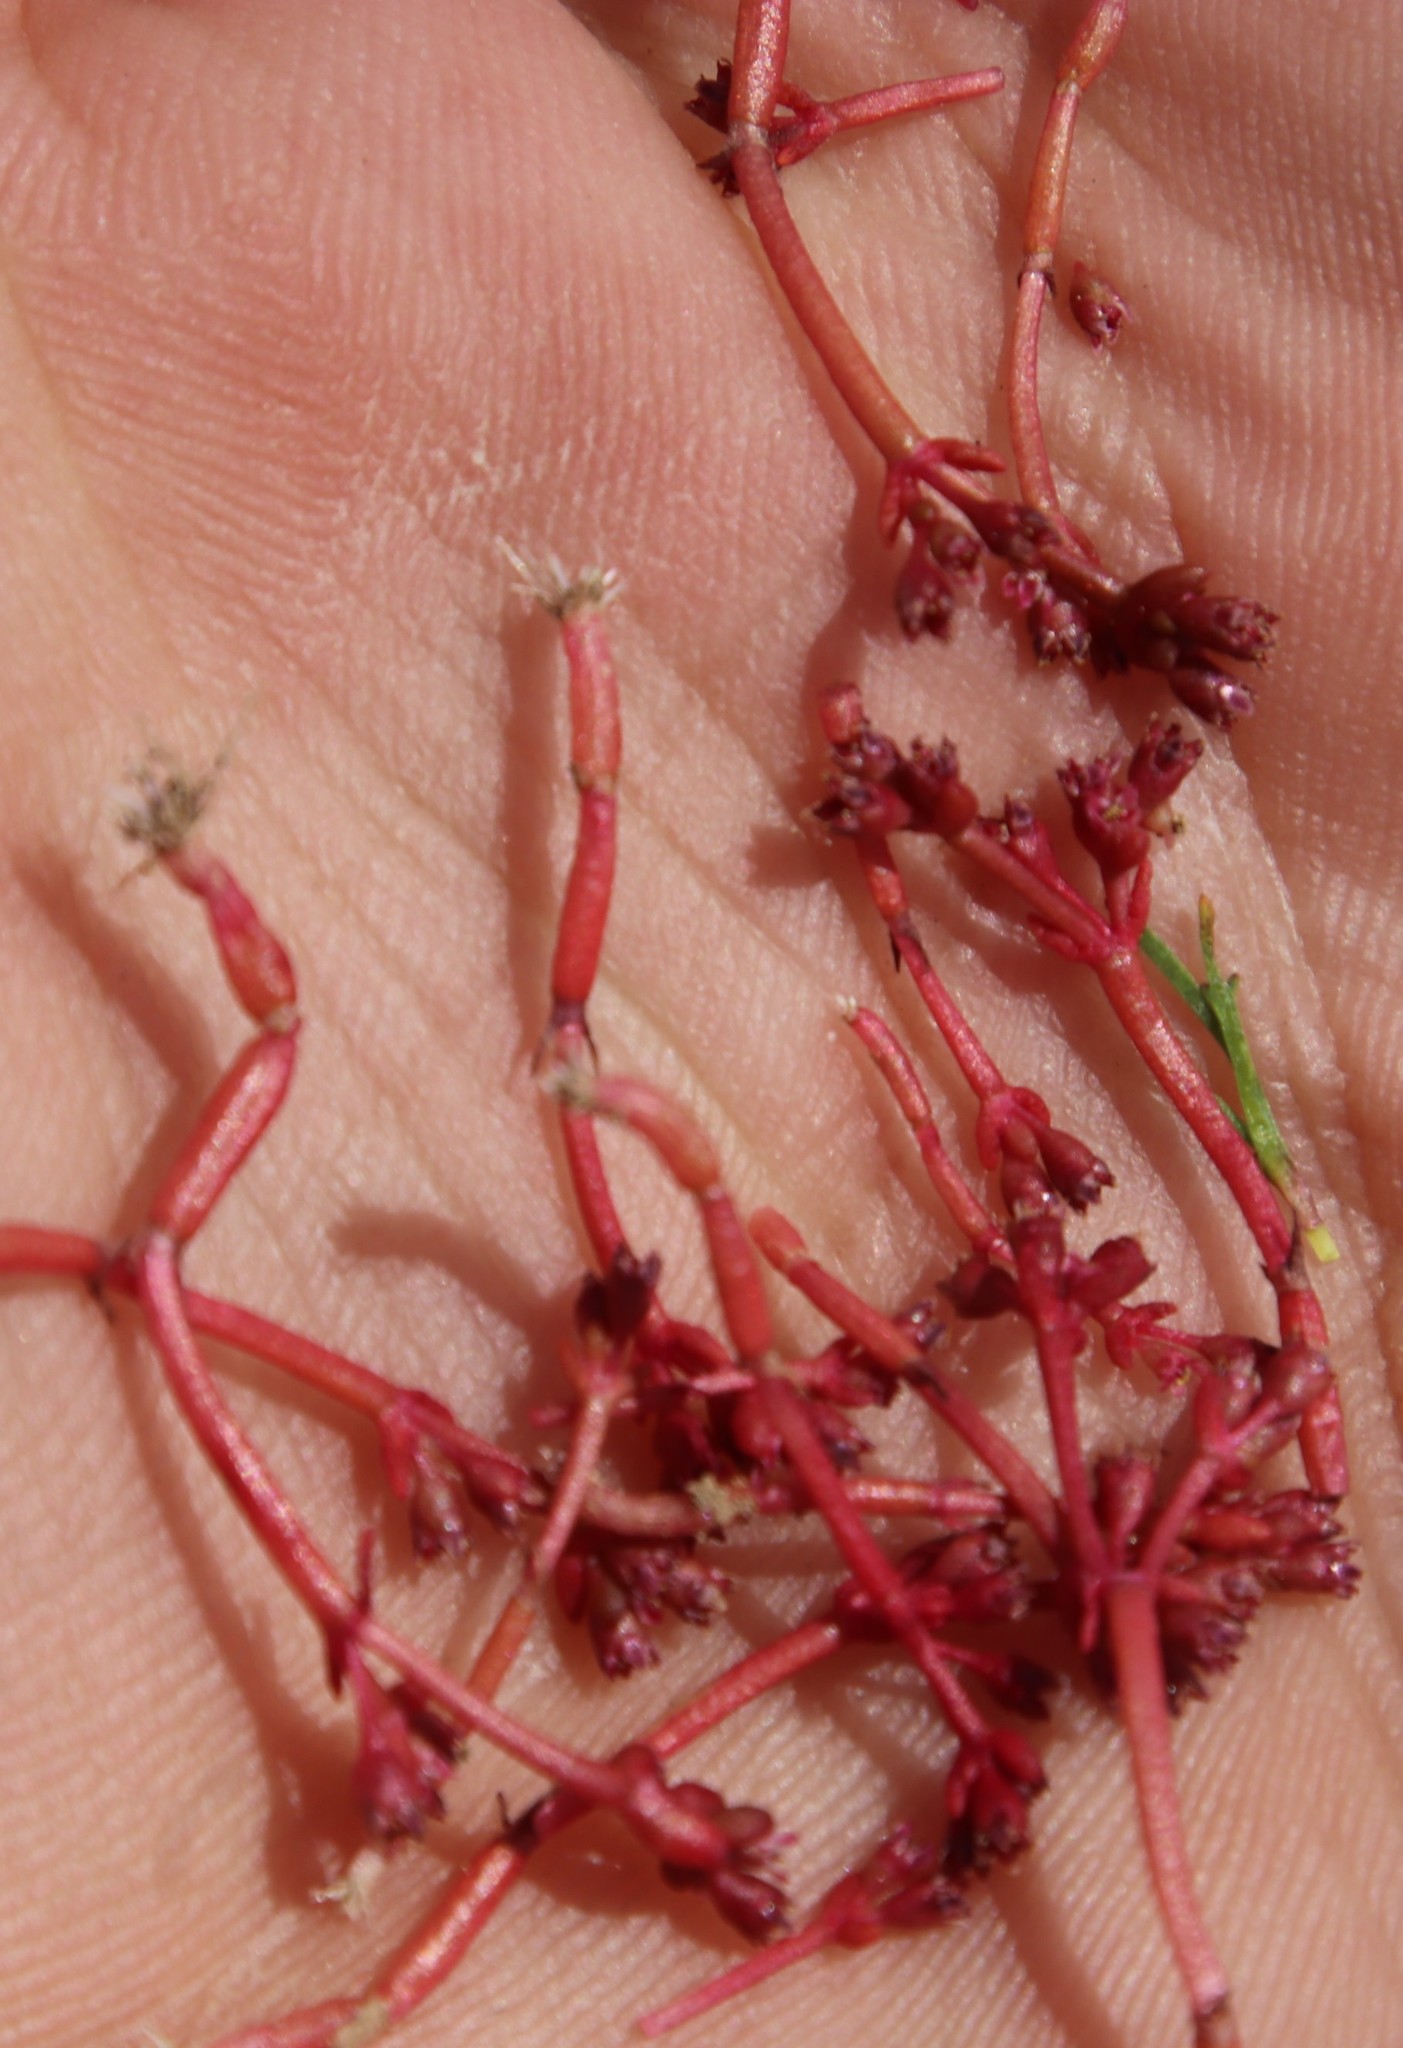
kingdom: Plantae
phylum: Tracheophyta
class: Magnoliopsida
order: Saxifragales
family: Crassulaceae
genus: Crassula
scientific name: Crassula natans
